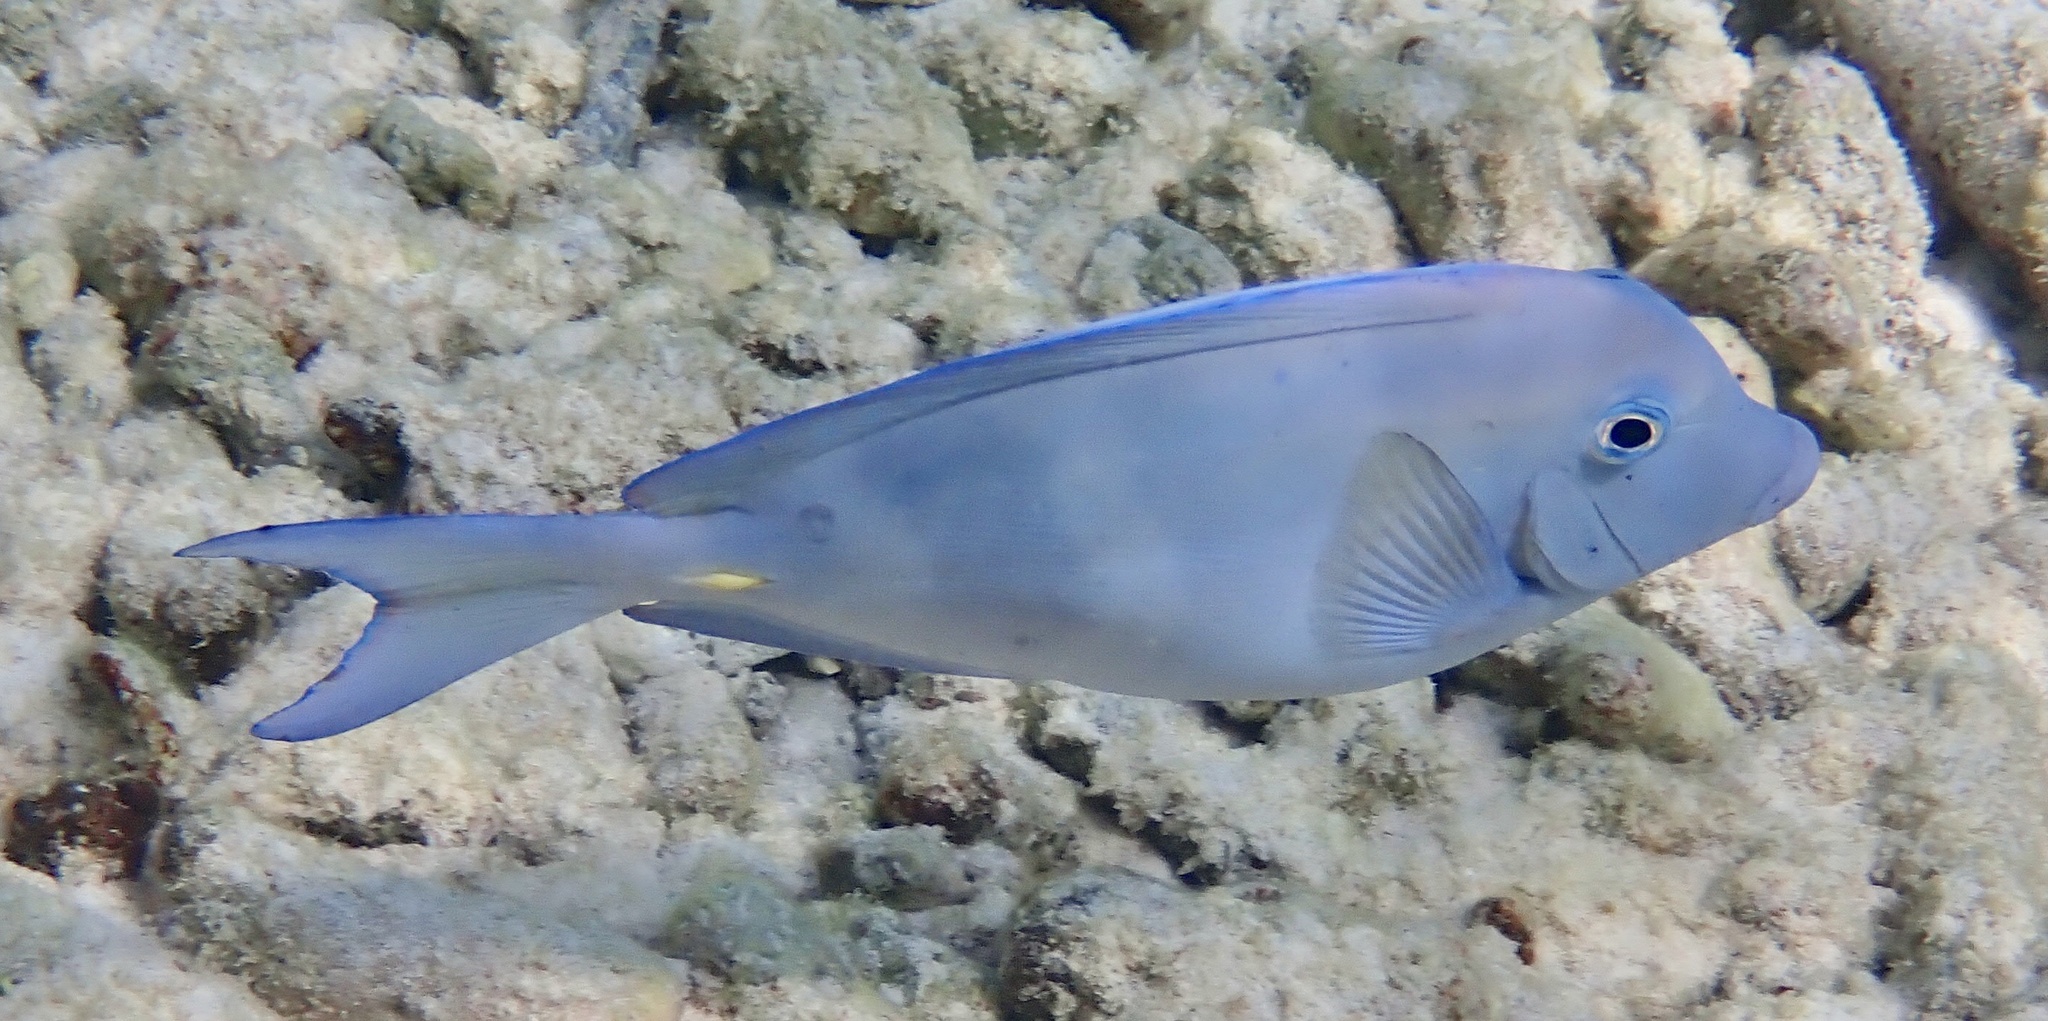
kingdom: Animalia
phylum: Chordata
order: Perciformes
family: Acanthuridae
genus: Acanthurus
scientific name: Acanthurus coeruleus
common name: Blue tang
